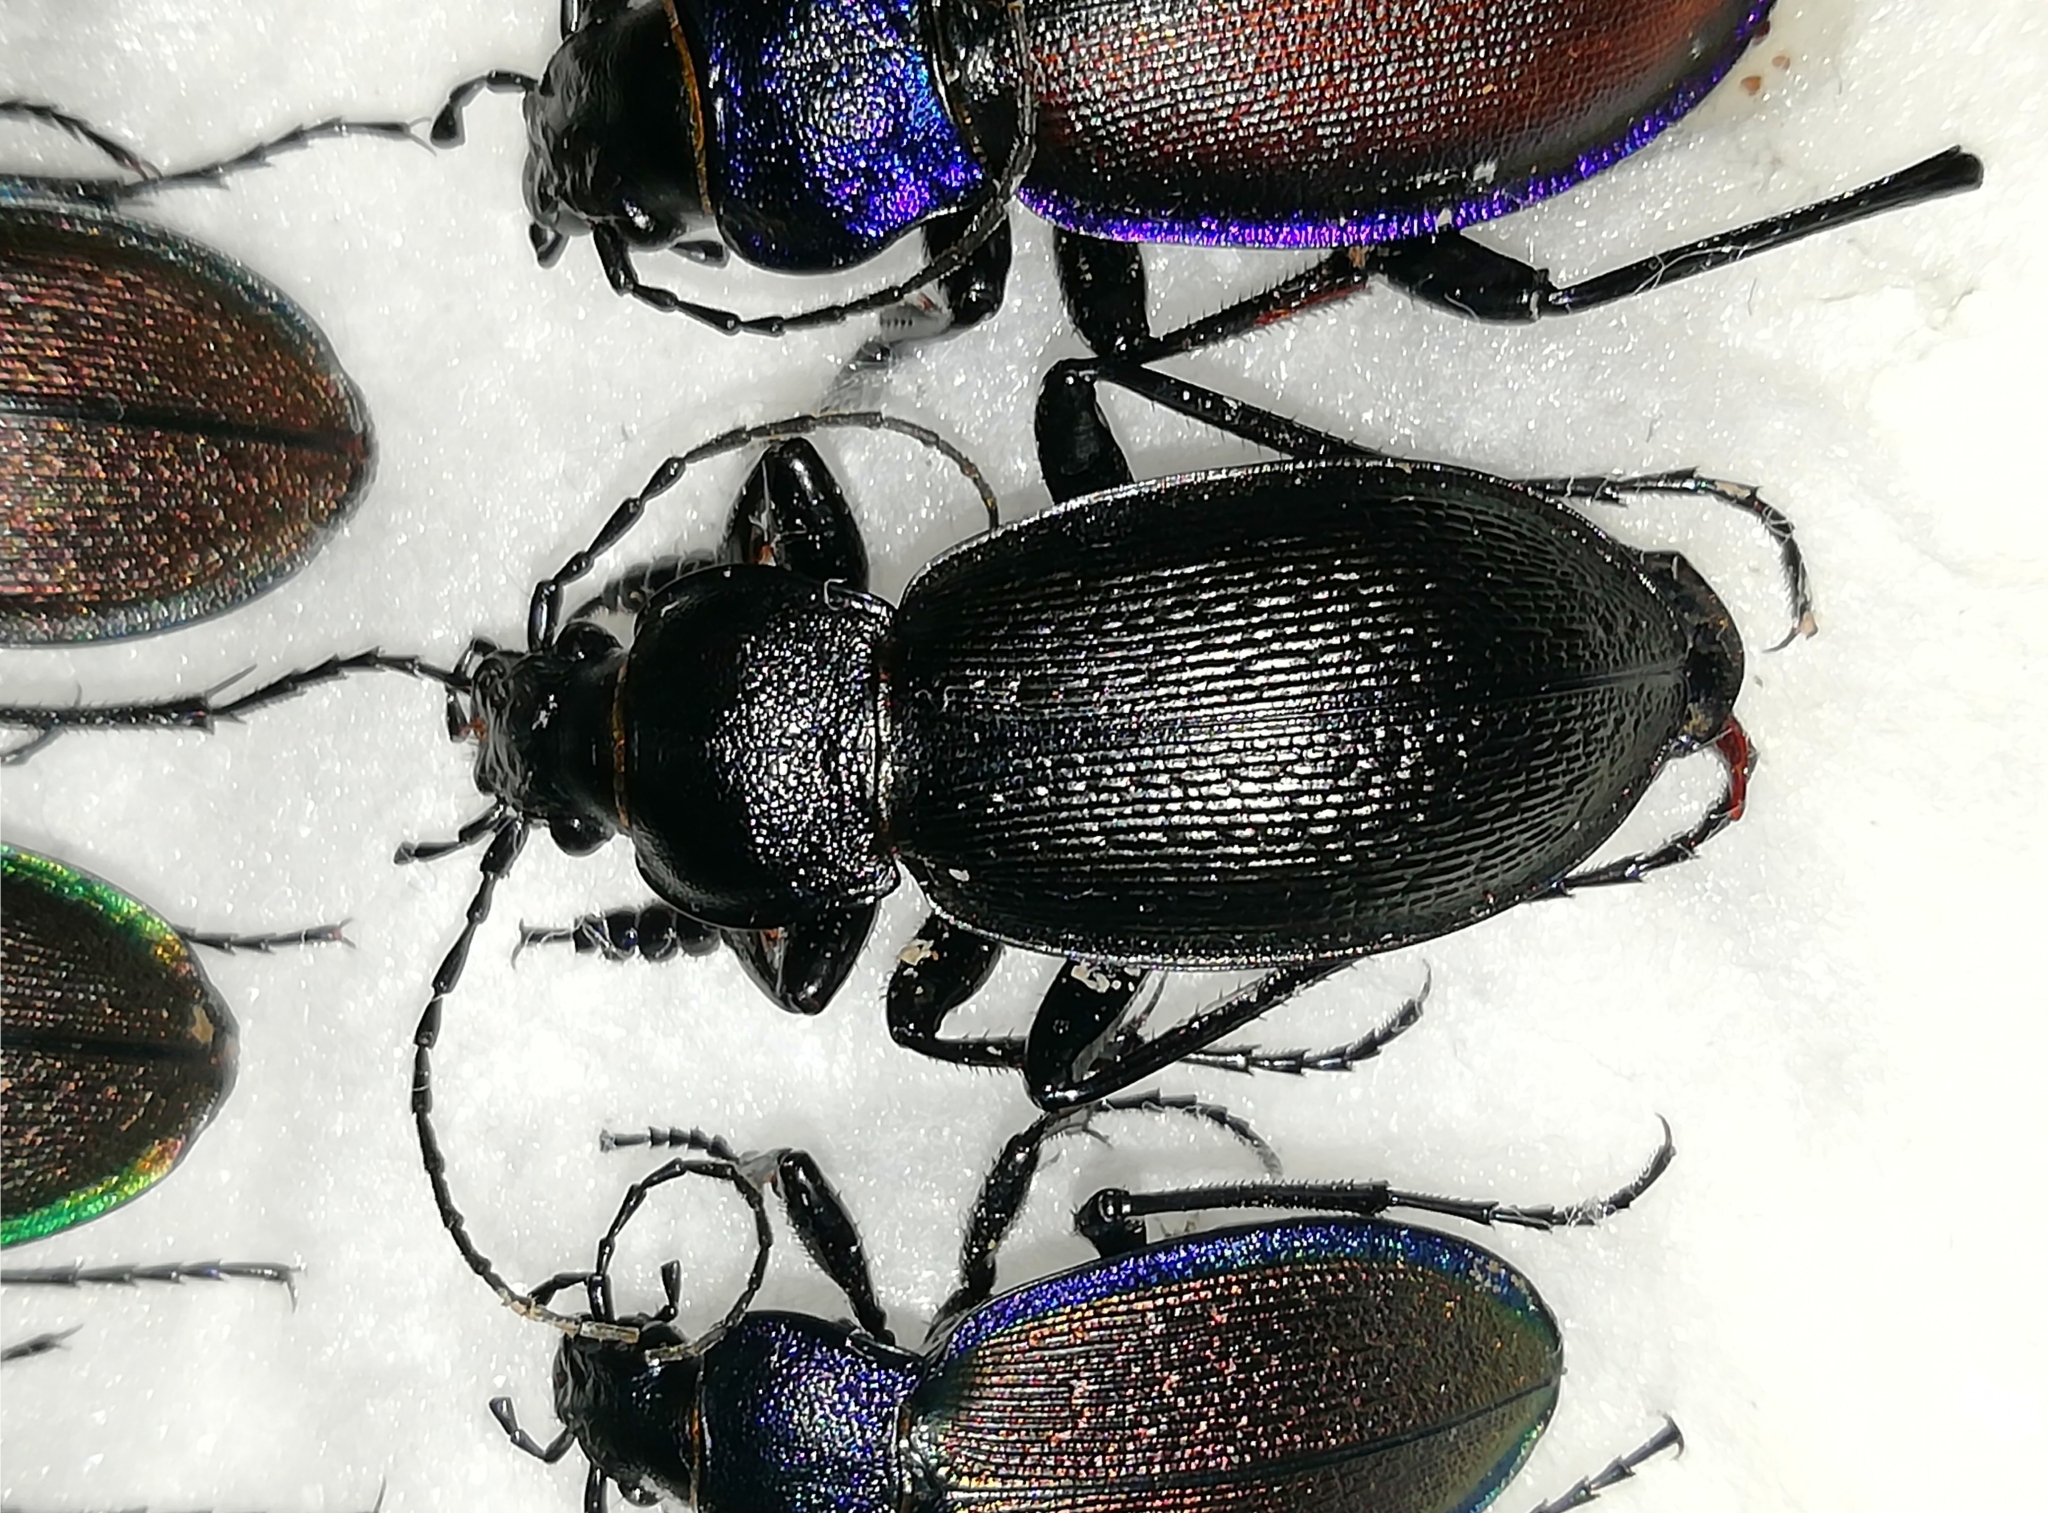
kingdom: Animalia
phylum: Arthropoda
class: Insecta
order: Coleoptera
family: Carabidae
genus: Carabus
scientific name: Carabus spasskianus
